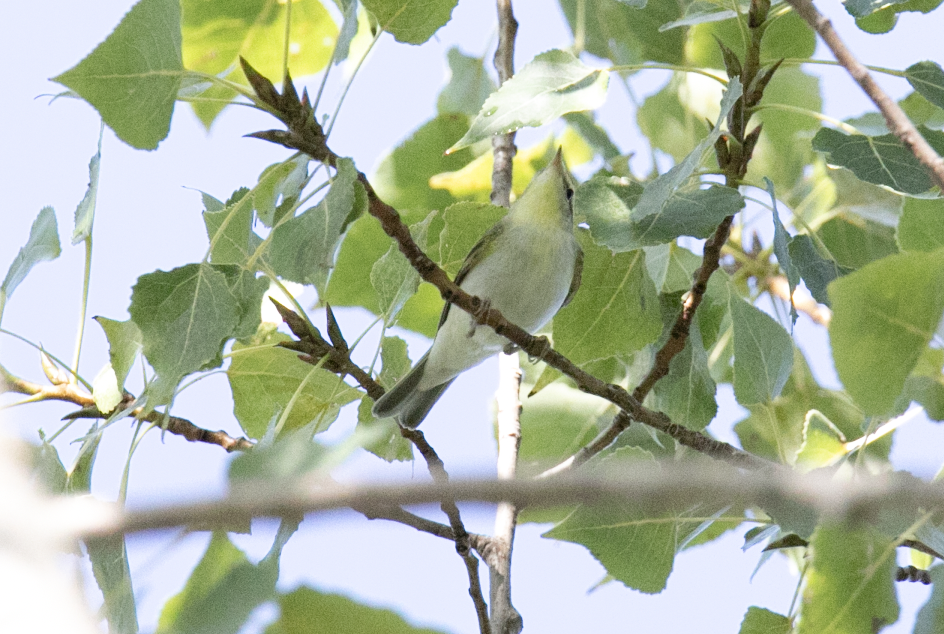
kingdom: Animalia
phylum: Chordata
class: Aves
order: Passeriformes
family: Phylloscopidae
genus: Phylloscopus
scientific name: Phylloscopus sibillatrix
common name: Wood warbler
